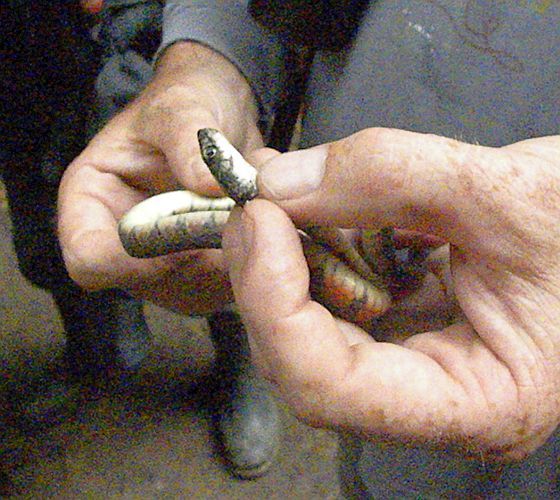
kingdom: Animalia
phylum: Chordata
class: Squamata
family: Colubridae
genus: Xenochrophis
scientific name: Xenochrophis trianguligerus
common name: Triangle keelback
